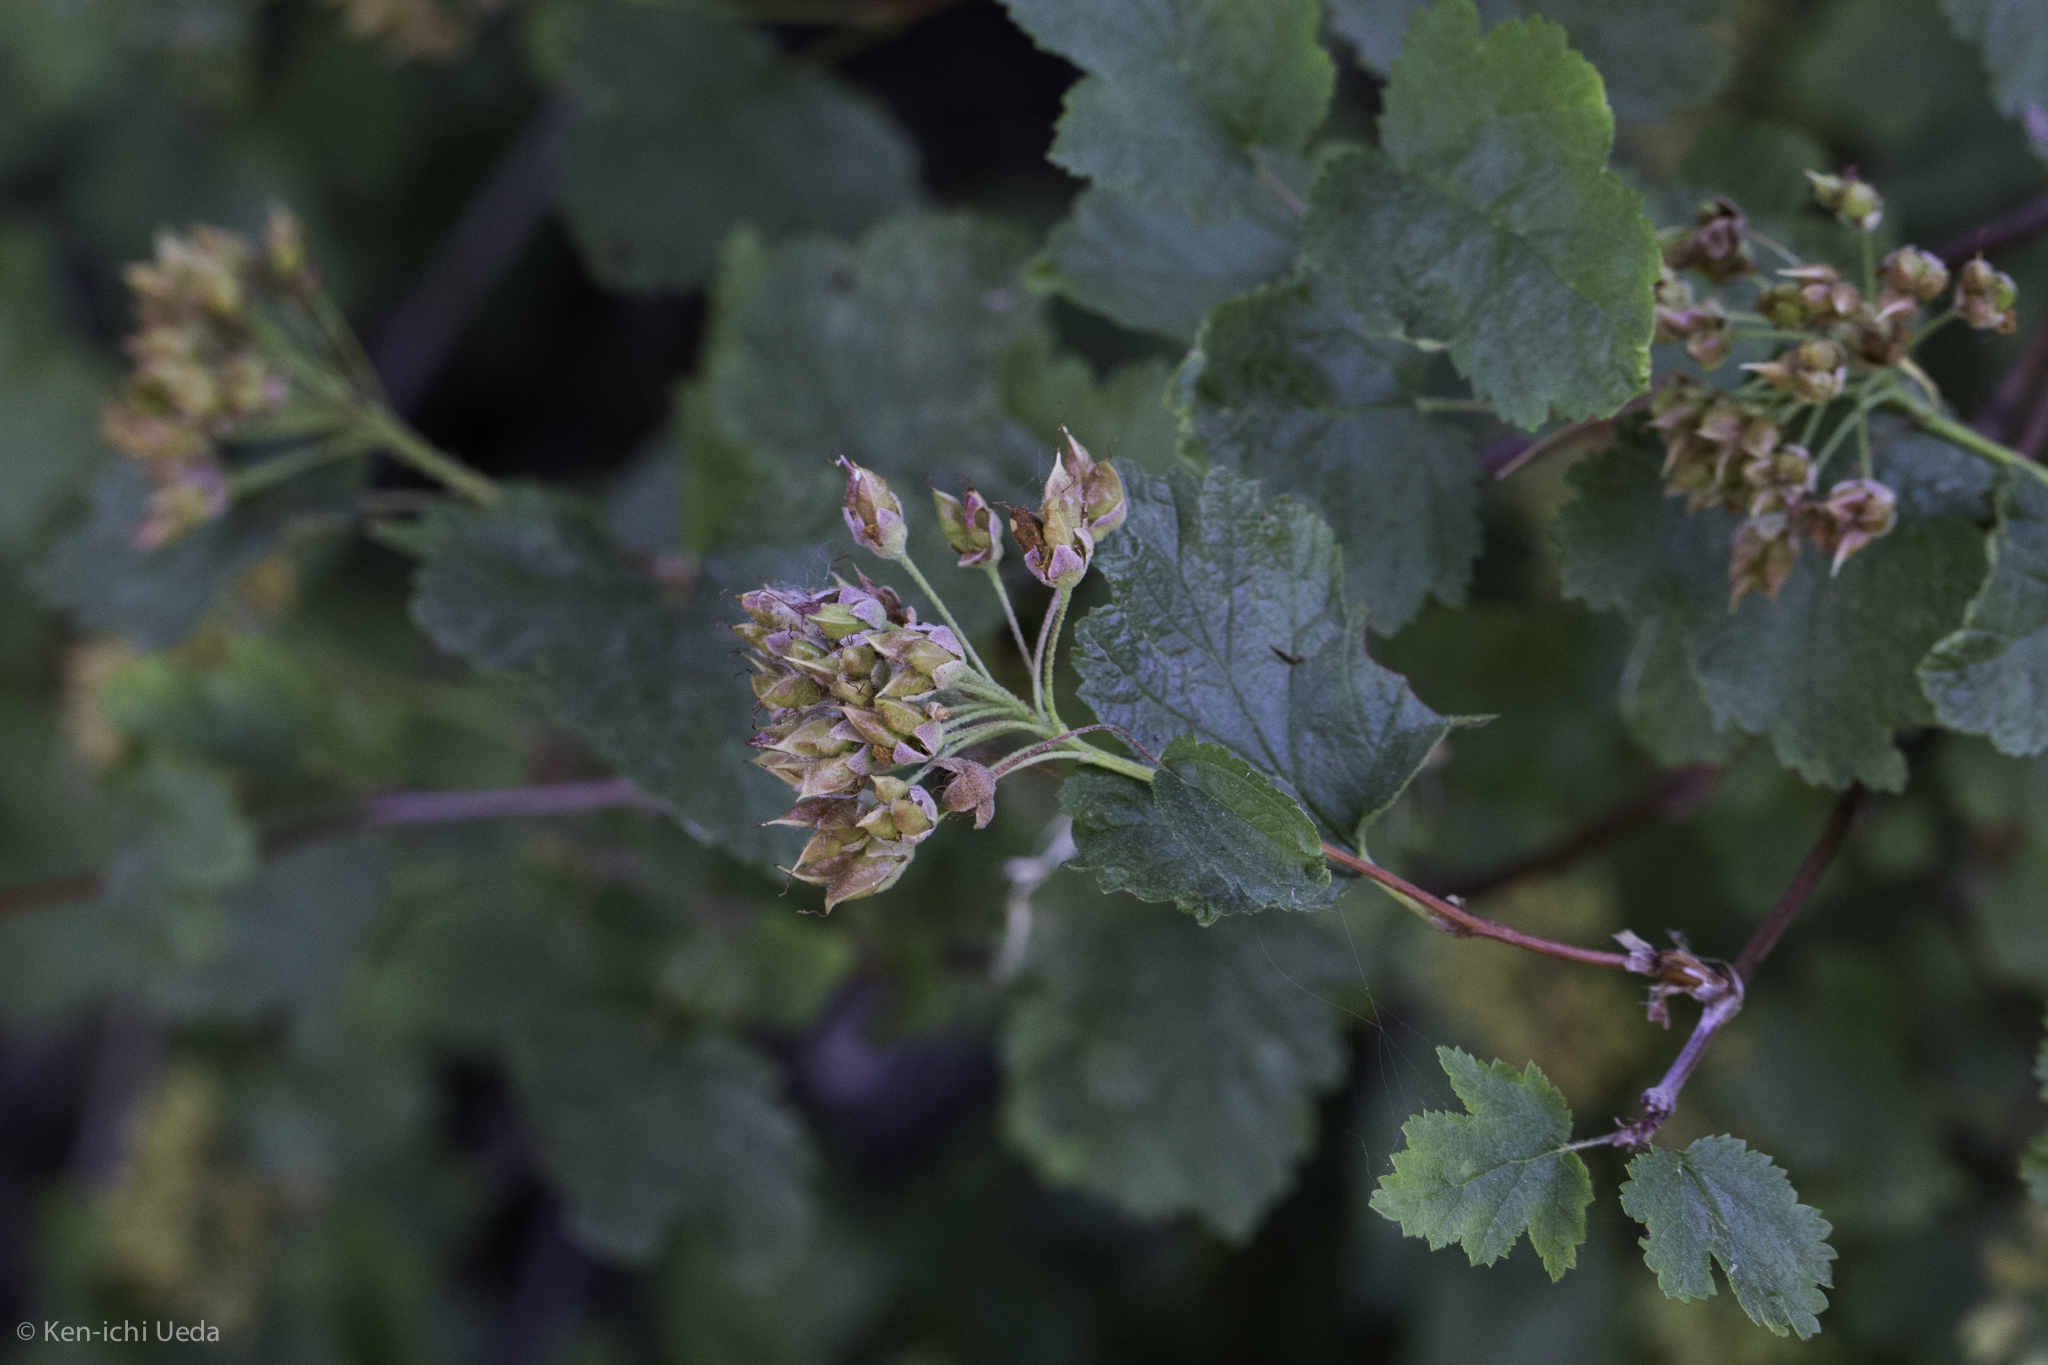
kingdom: Plantae
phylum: Tracheophyta
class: Magnoliopsida
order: Rosales
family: Rosaceae
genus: Physocarpus
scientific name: Physocarpus capitatus
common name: Pacific ninebark
